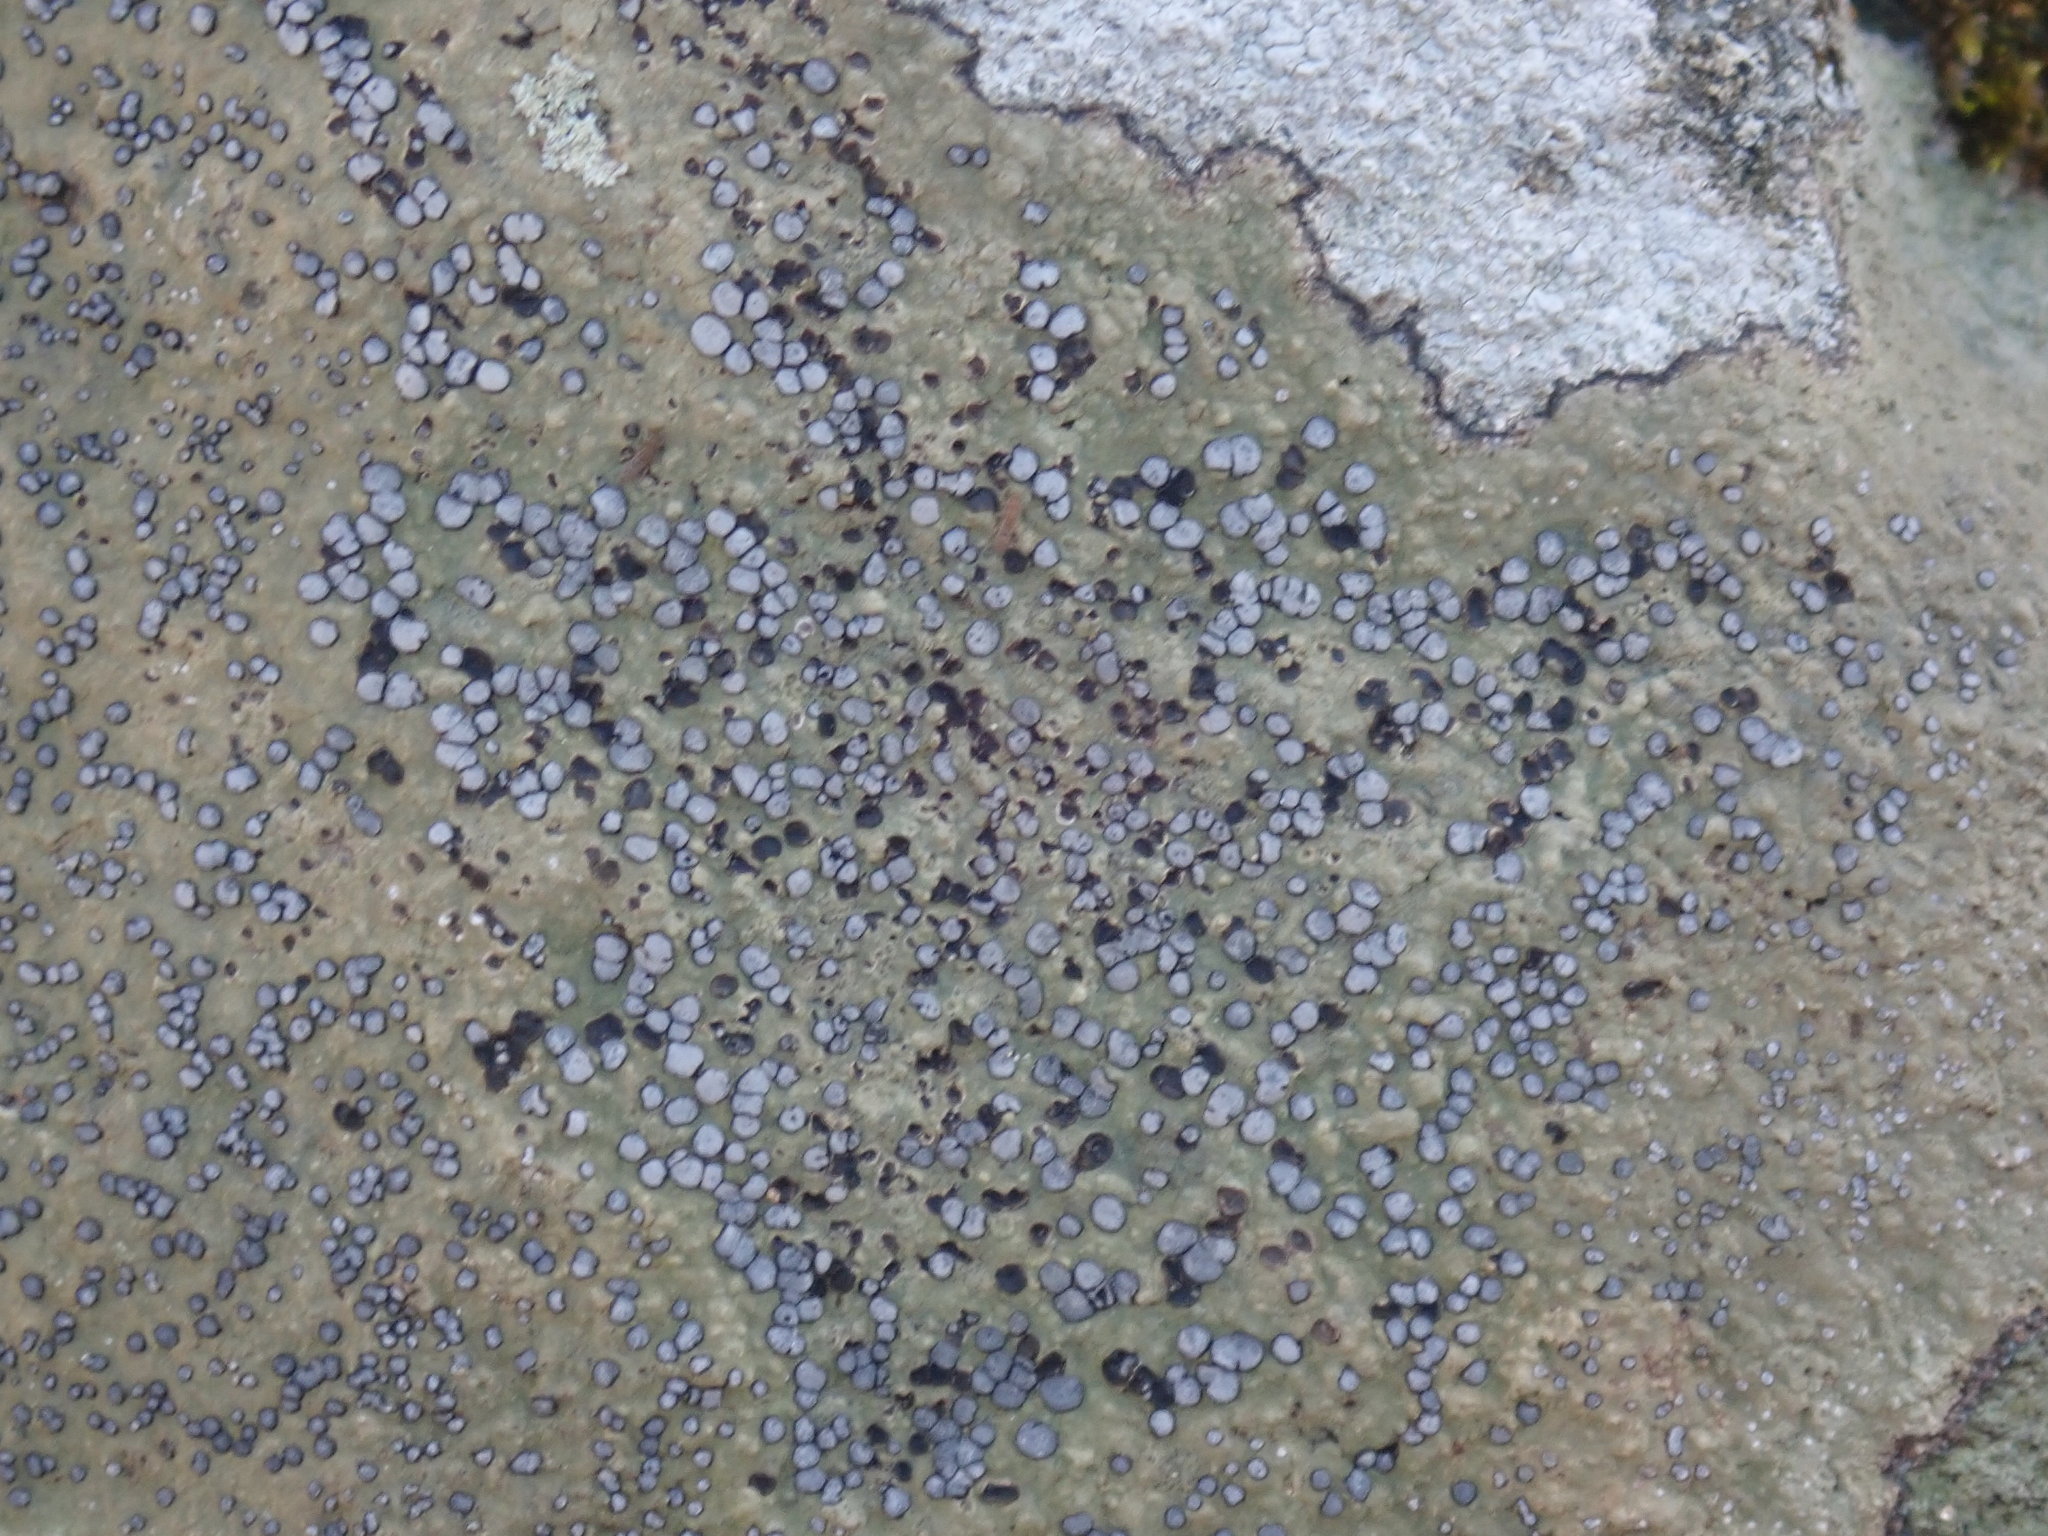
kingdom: Fungi
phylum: Ascomycota
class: Lecanoromycetes
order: Lecideales
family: Lecideaceae
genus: Porpidia
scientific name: Porpidia albocaerulescens
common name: Smokey-eyed boulder lichen
